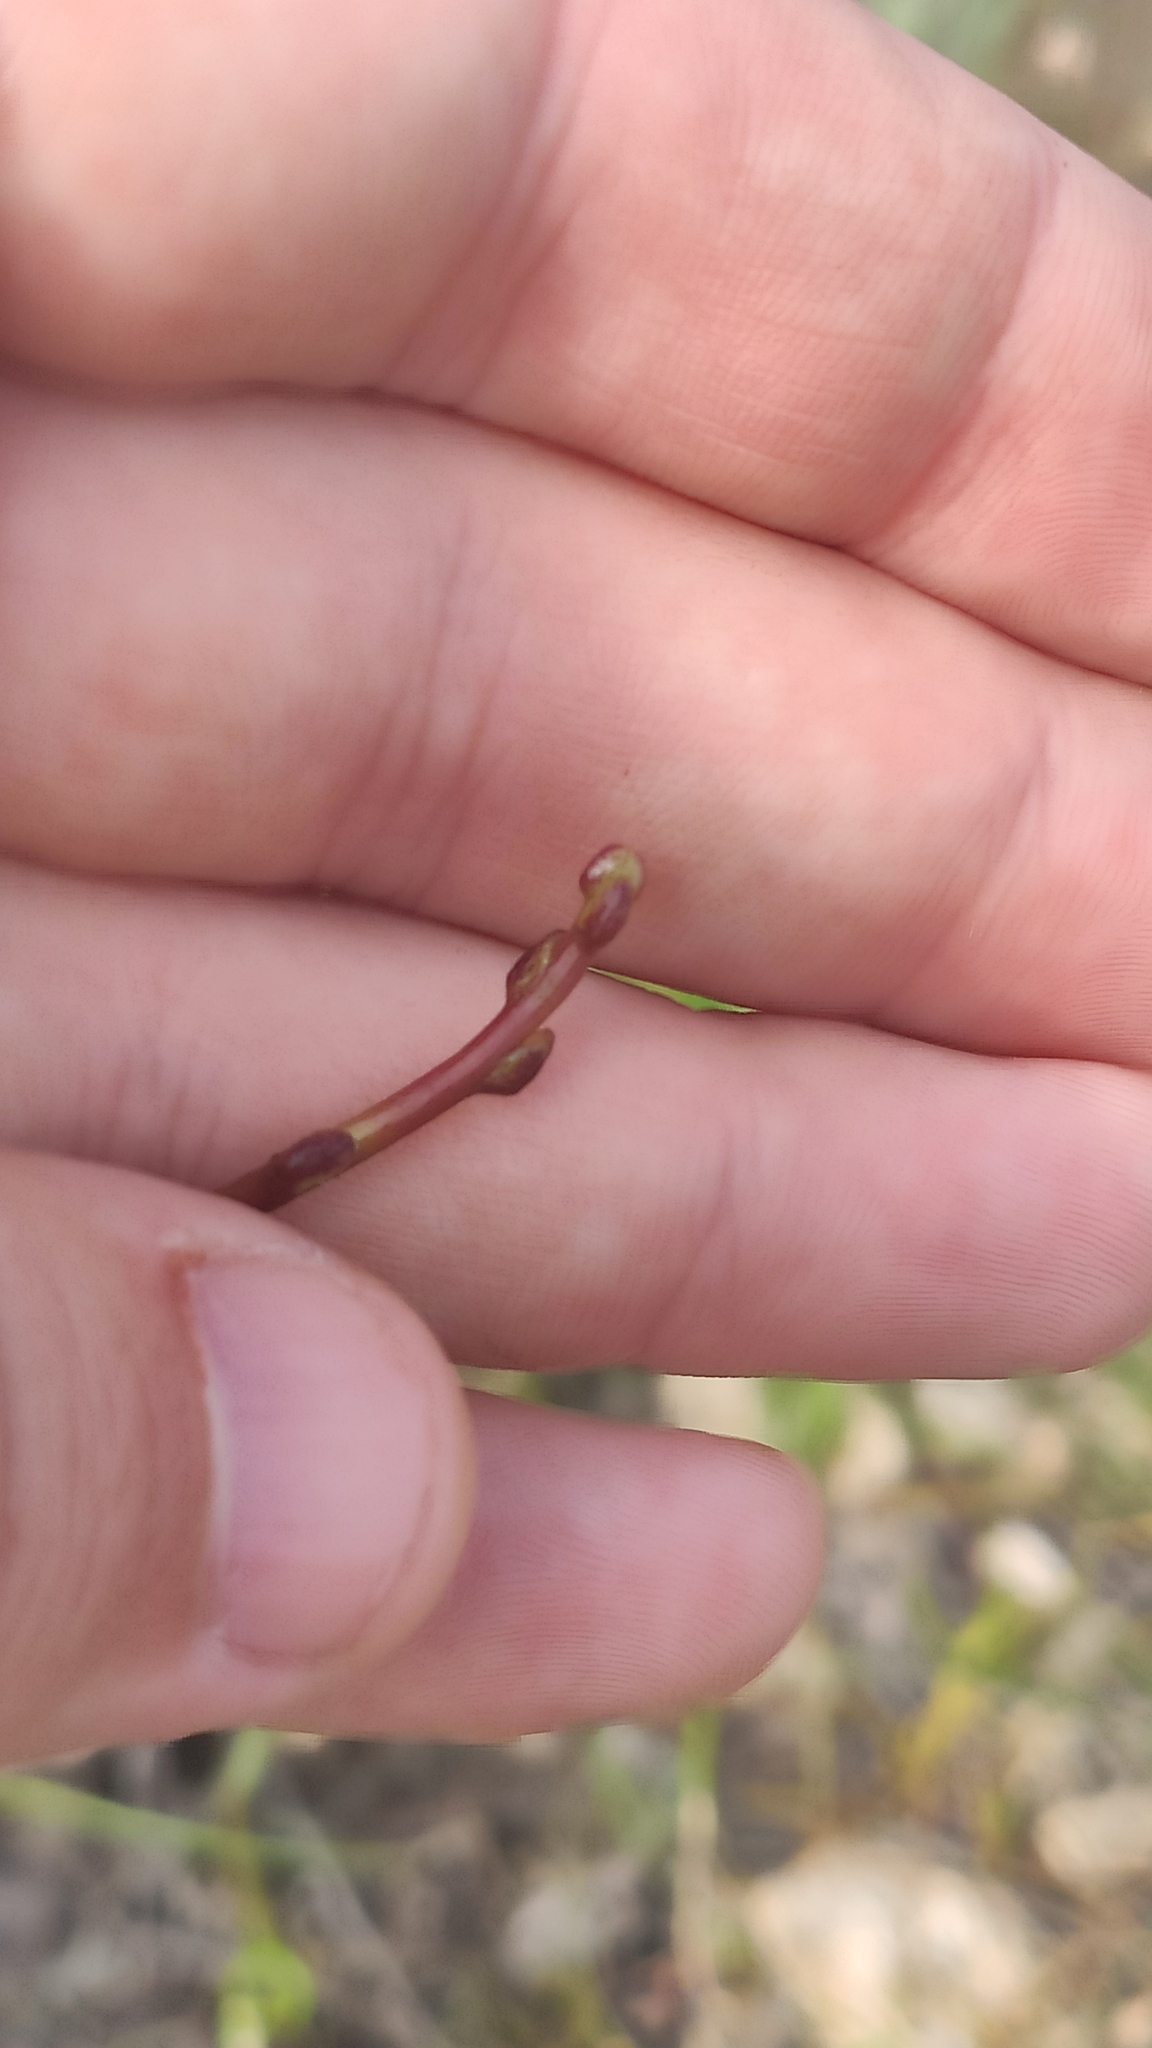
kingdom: Plantae
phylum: Tracheophyta
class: Magnoliopsida
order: Solanales
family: Convolvulaceae
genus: Cuscuta
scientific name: Cuscuta monogyna
